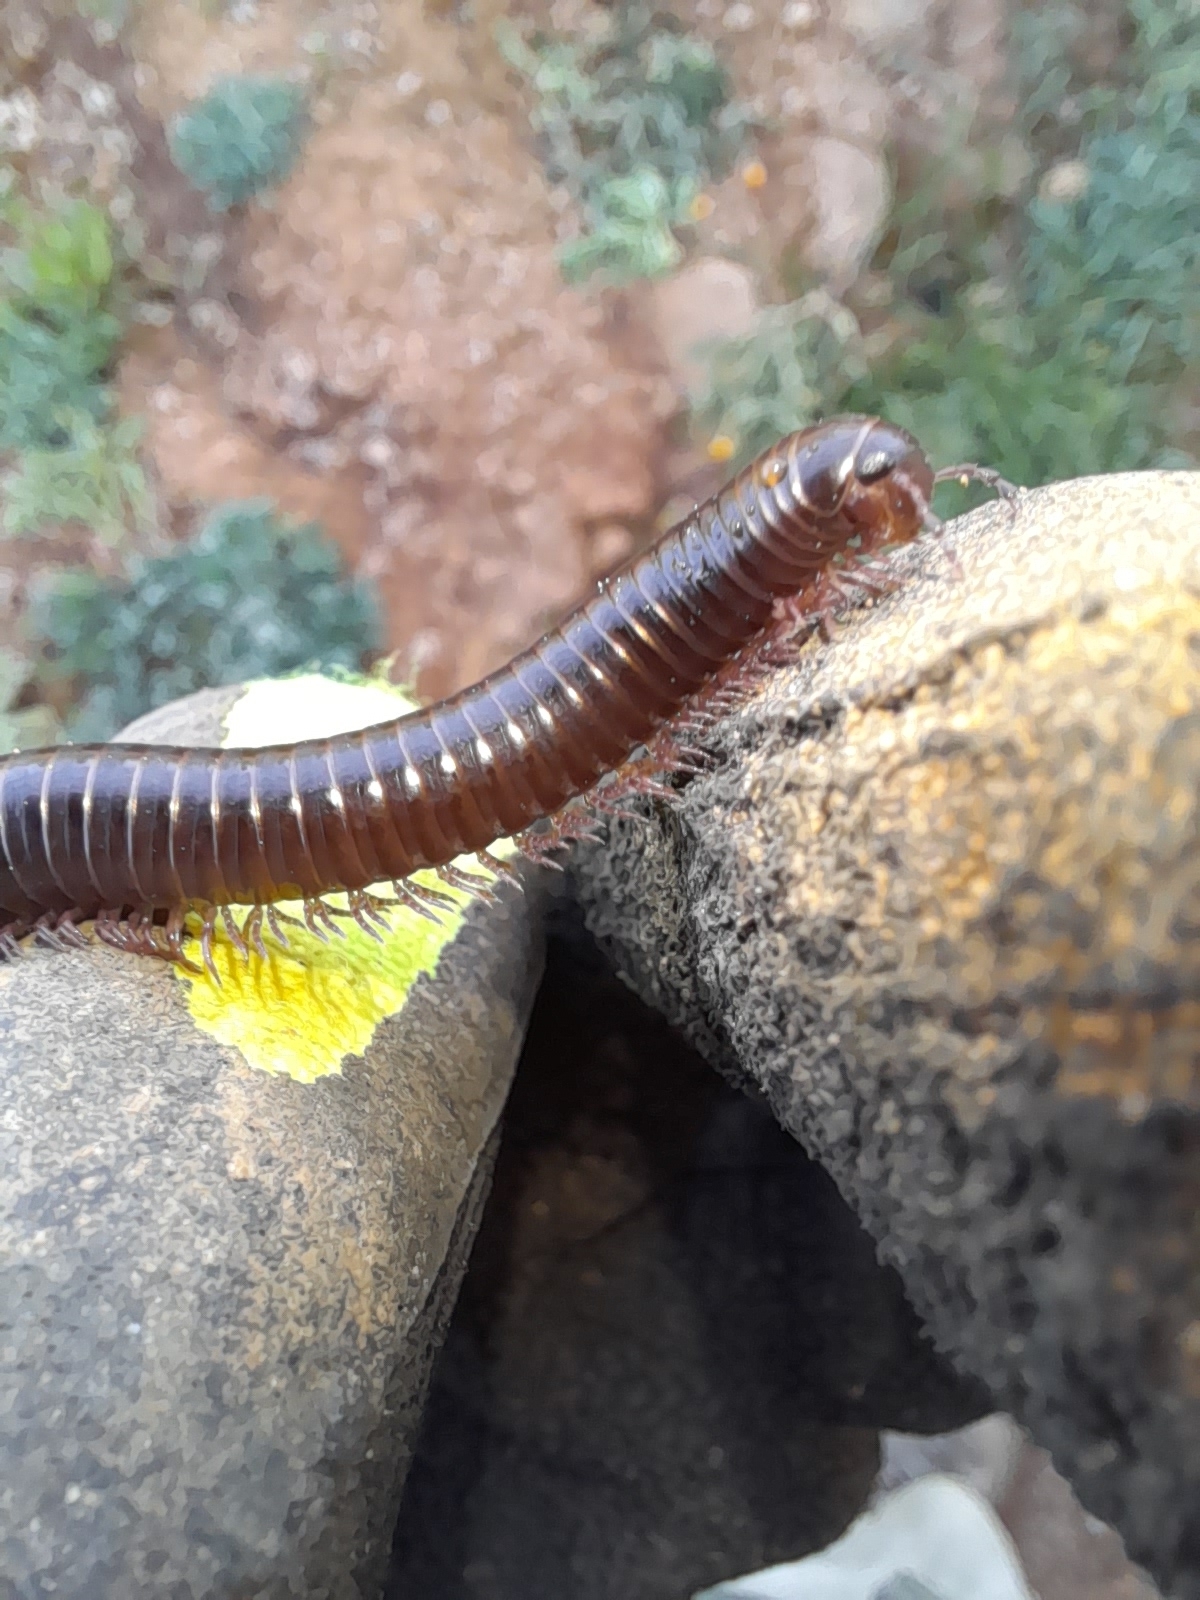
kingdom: Animalia
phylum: Arthropoda
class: Diplopoda
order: Julida
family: Julidae
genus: Pachyiulus
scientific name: Pachyiulus oenologus
